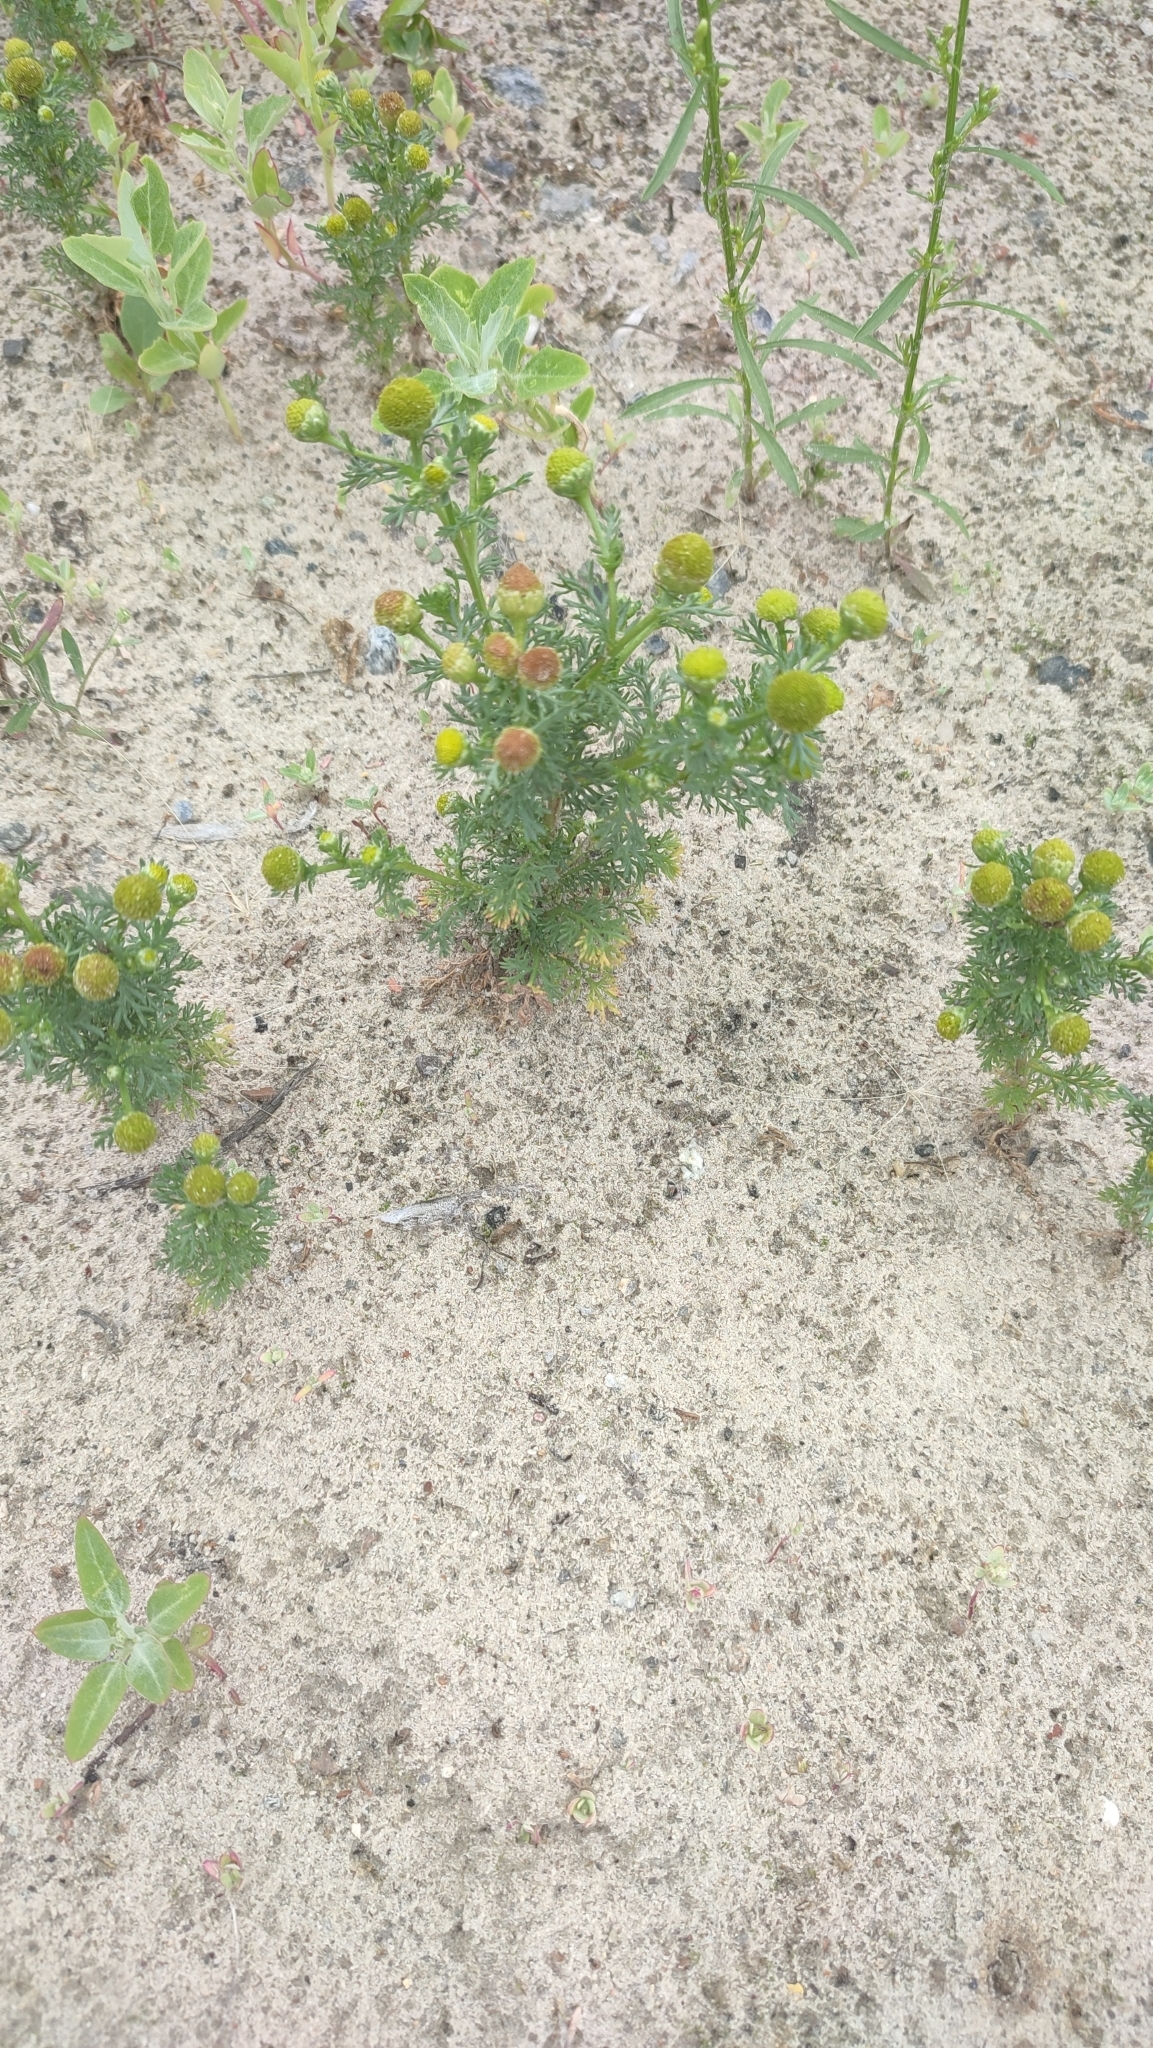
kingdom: Plantae
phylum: Tracheophyta
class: Magnoliopsida
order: Asterales
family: Asteraceae
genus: Matricaria
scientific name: Matricaria discoidea
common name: Disc mayweed
